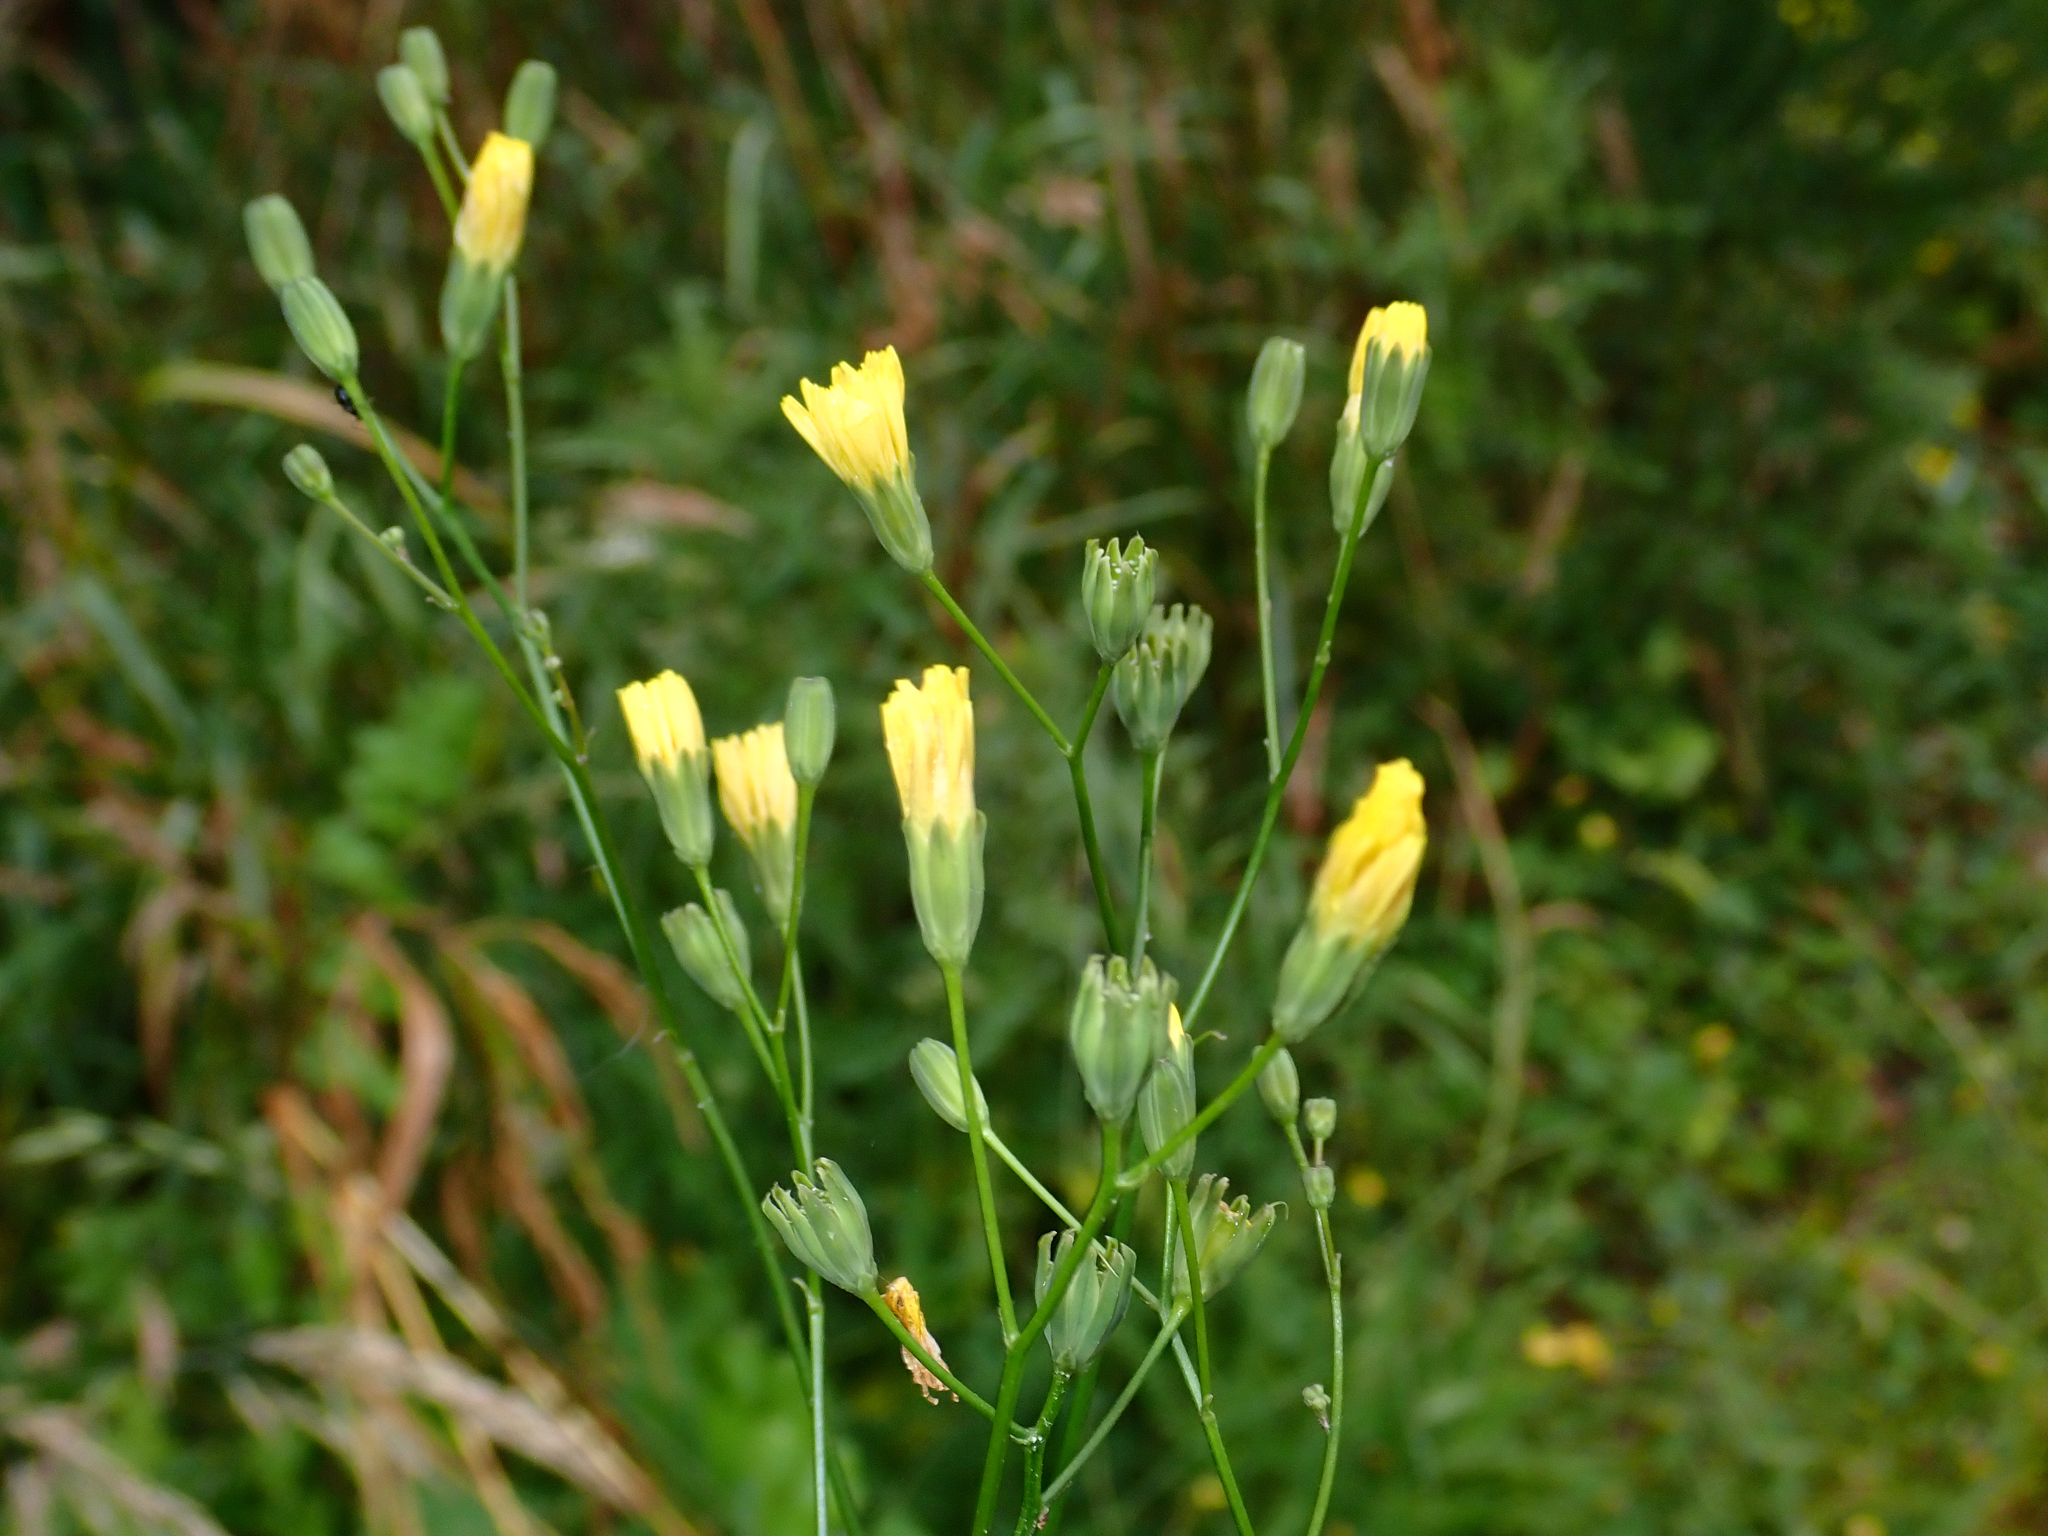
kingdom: Plantae
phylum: Tracheophyta
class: Magnoliopsida
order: Asterales
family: Asteraceae
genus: Lapsana
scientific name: Lapsana communis
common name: Nipplewort
